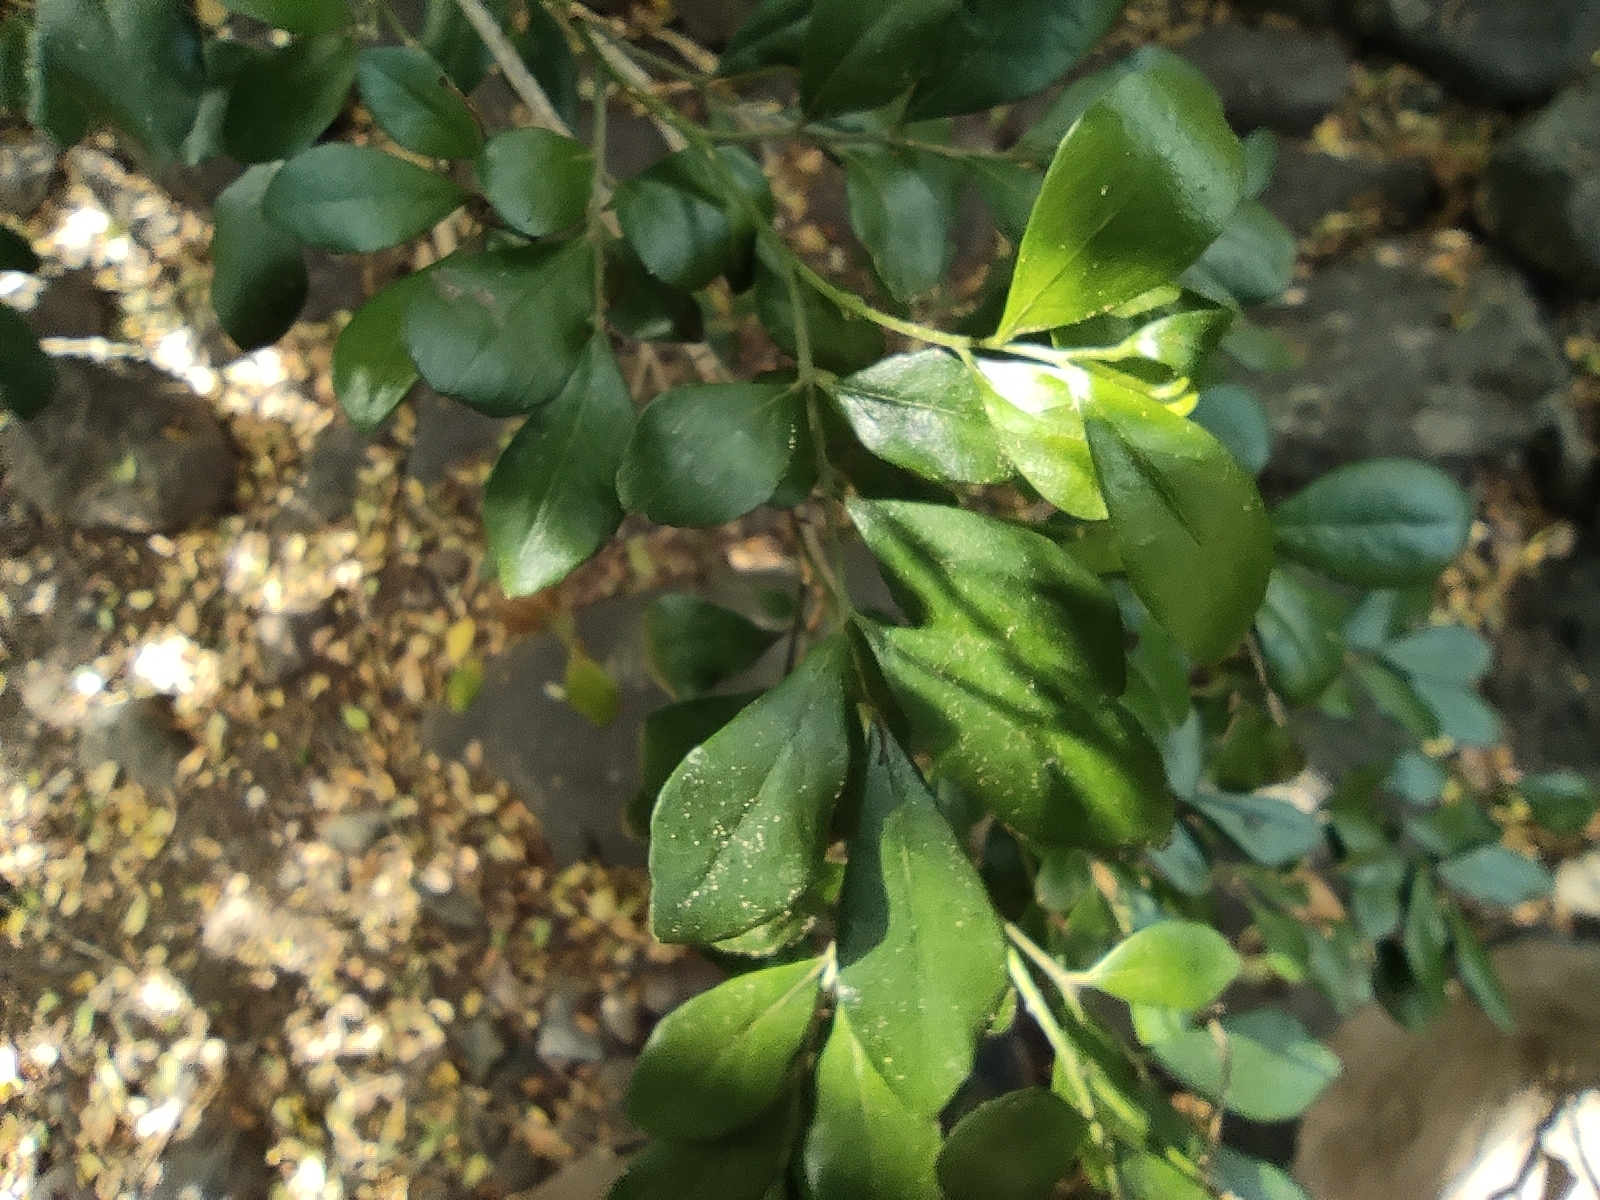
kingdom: Plantae
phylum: Tracheophyta
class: Magnoliopsida
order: Sapindales
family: Rutaceae
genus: Murraya
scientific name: Murraya paniculata
